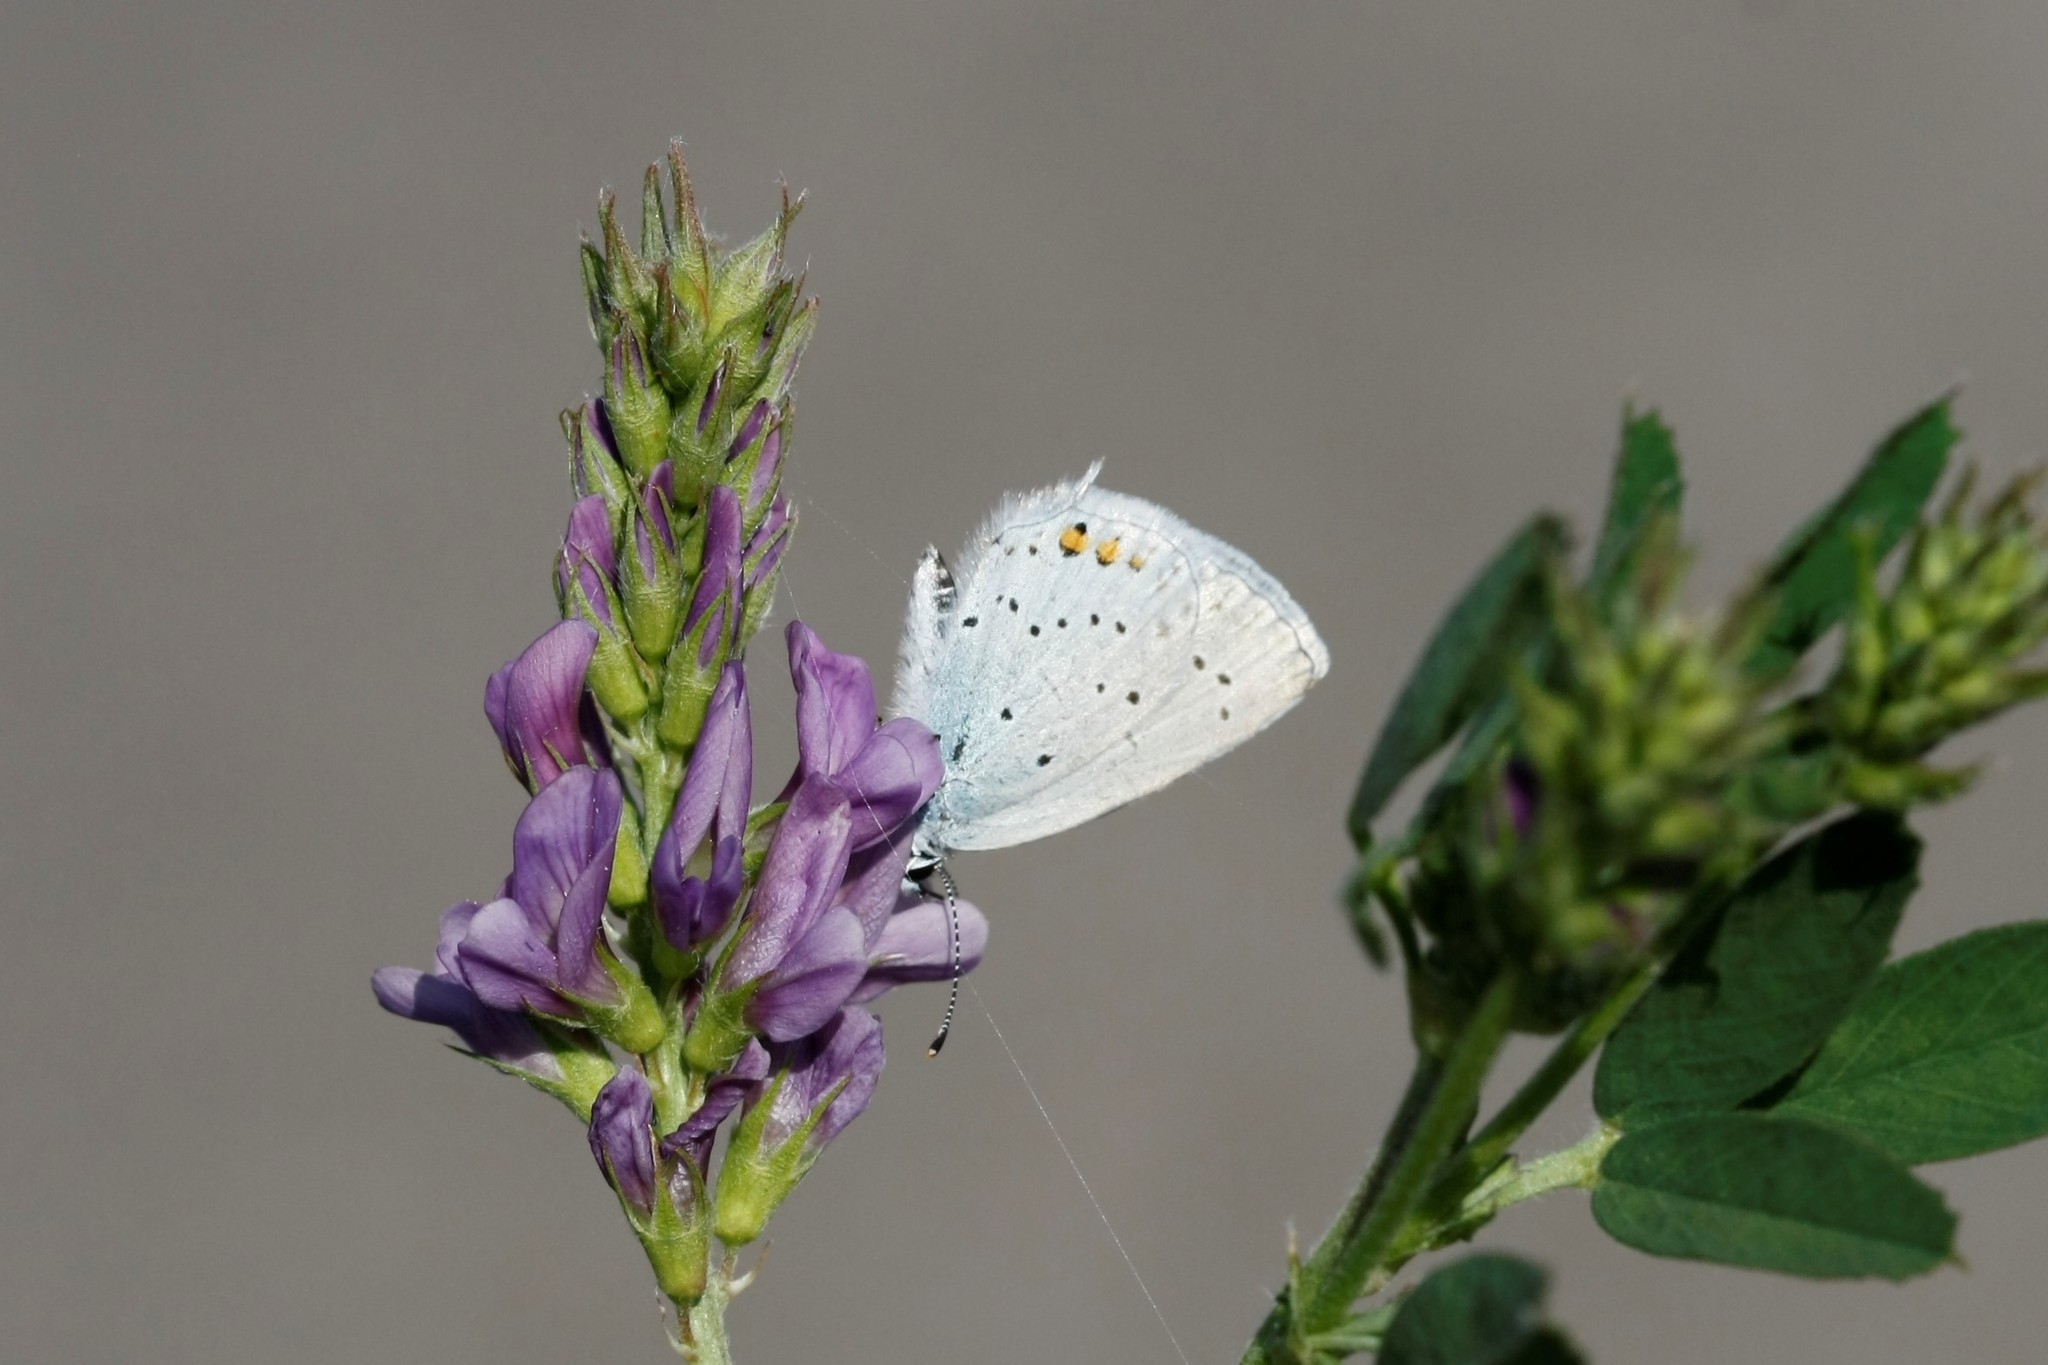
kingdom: Animalia
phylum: Arthropoda
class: Insecta
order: Lepidoptera
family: Lycaenidae
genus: Elkalyce
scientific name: Elkalyce argiades
